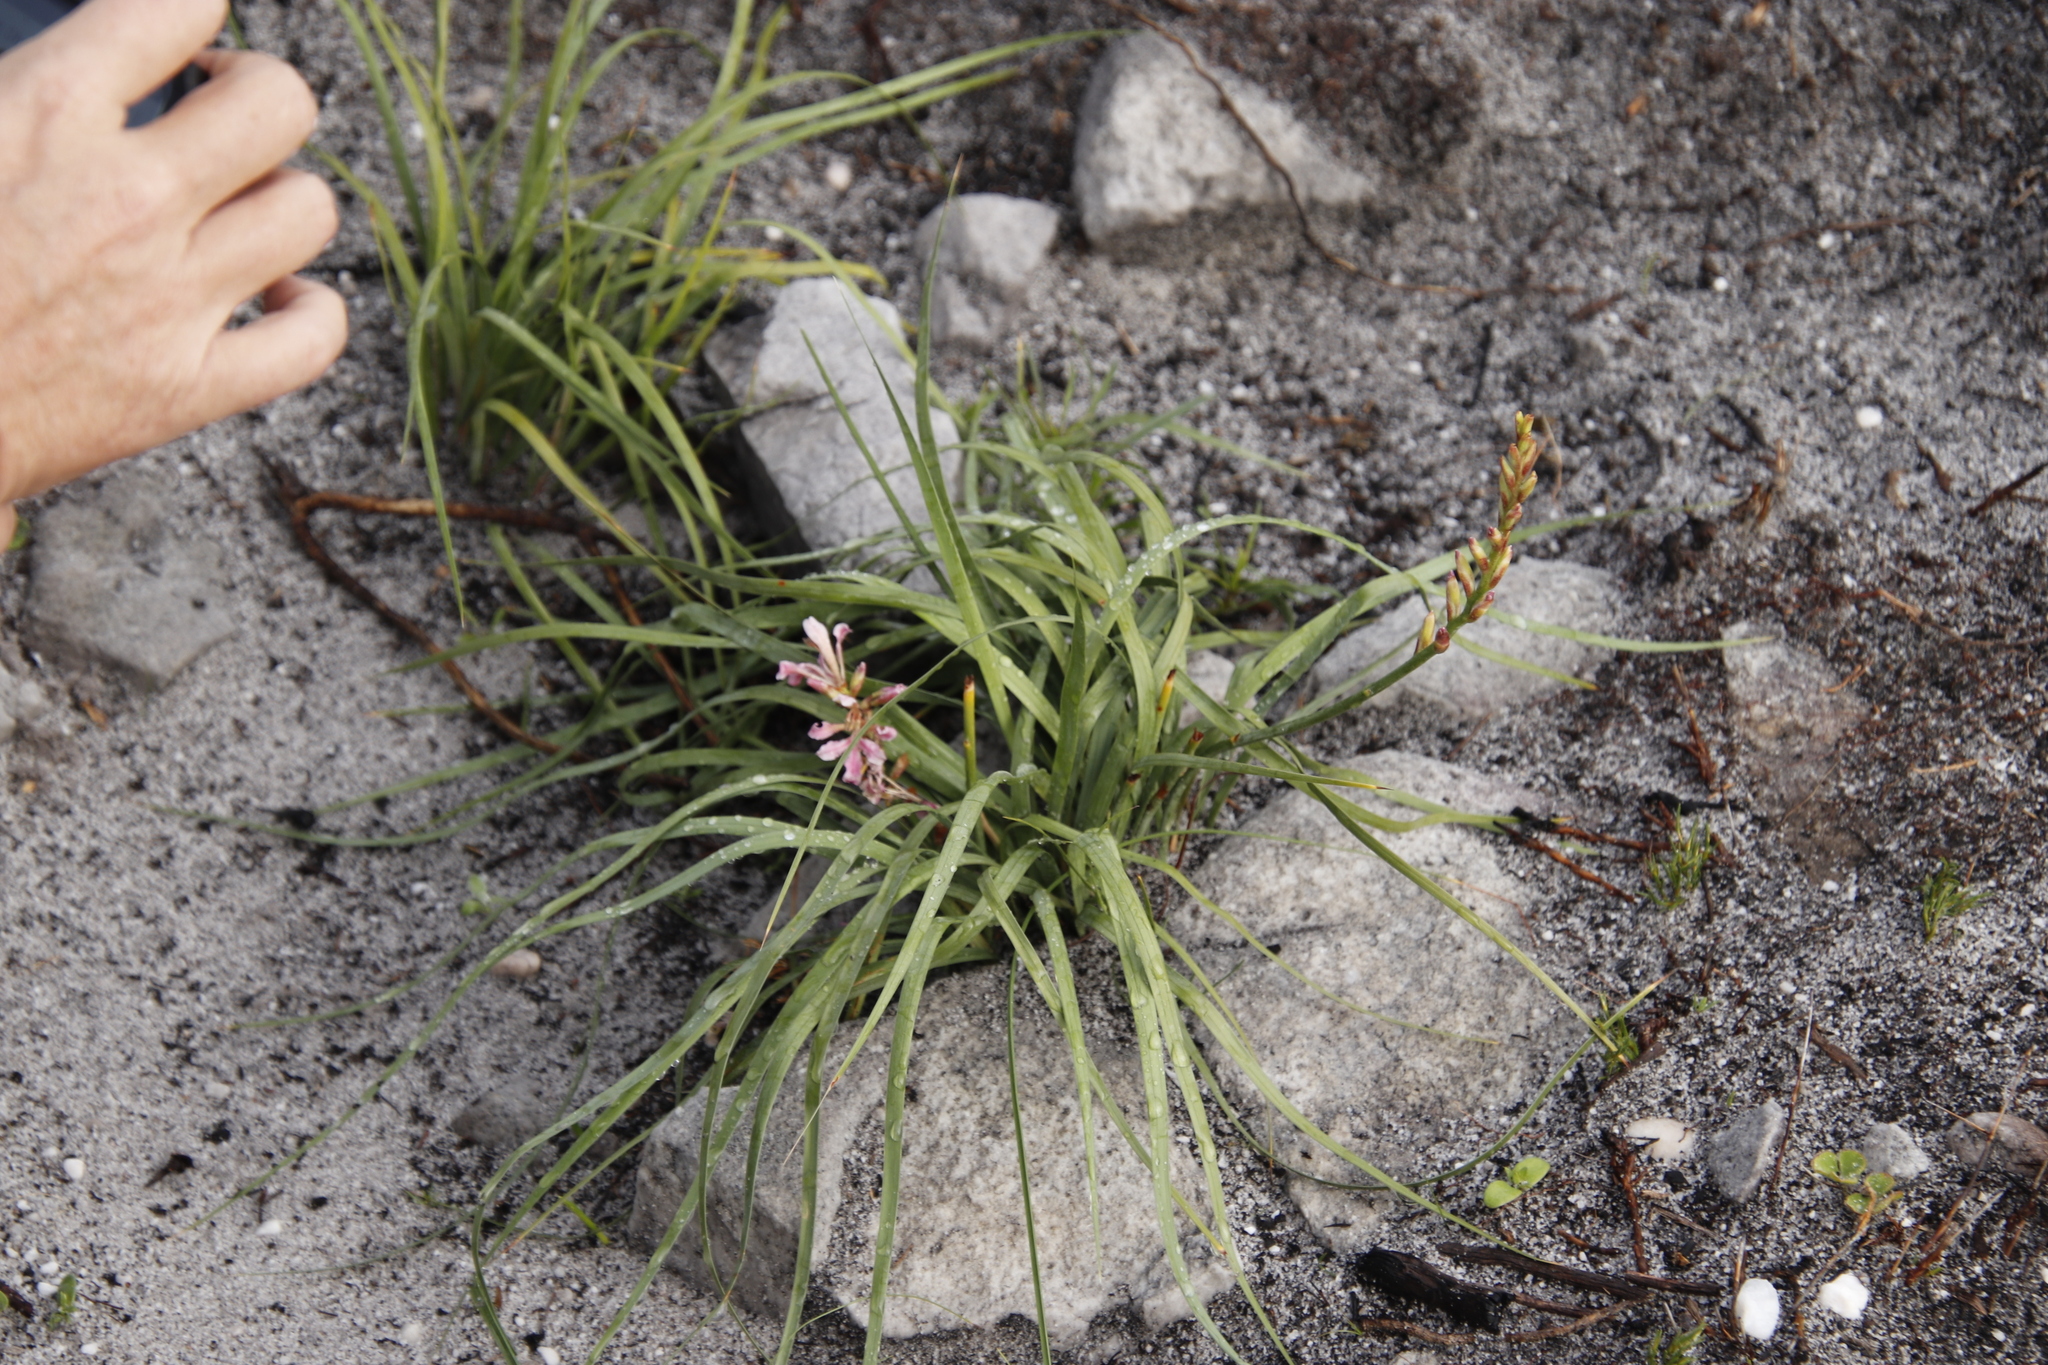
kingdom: Plantae
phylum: Tracheophyta
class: Liliopsida
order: Asparagales
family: Iridaceae
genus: Tritoniopsis
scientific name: Tritoniopsis dodii
